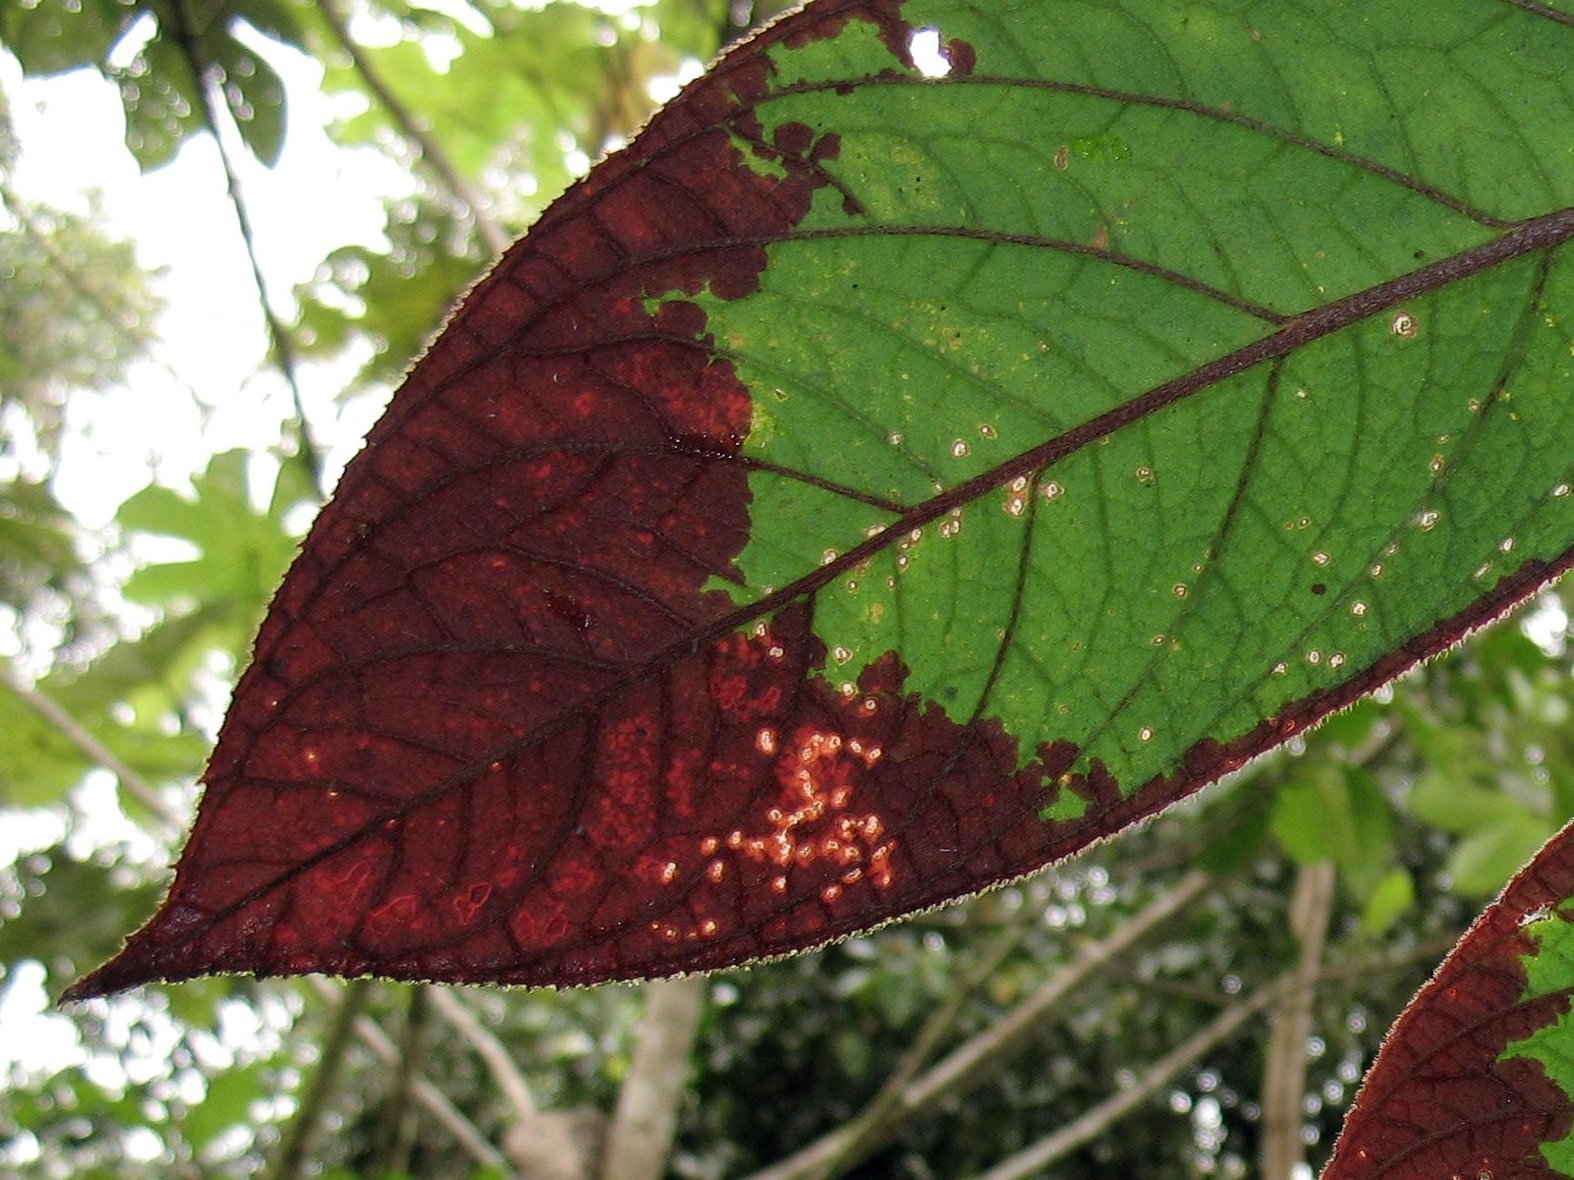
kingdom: Plantae
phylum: Tracheophyta
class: Magnoliopsida
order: Lamiales
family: Gesneriaceae
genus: Columnea
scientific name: Columnea eburnea
